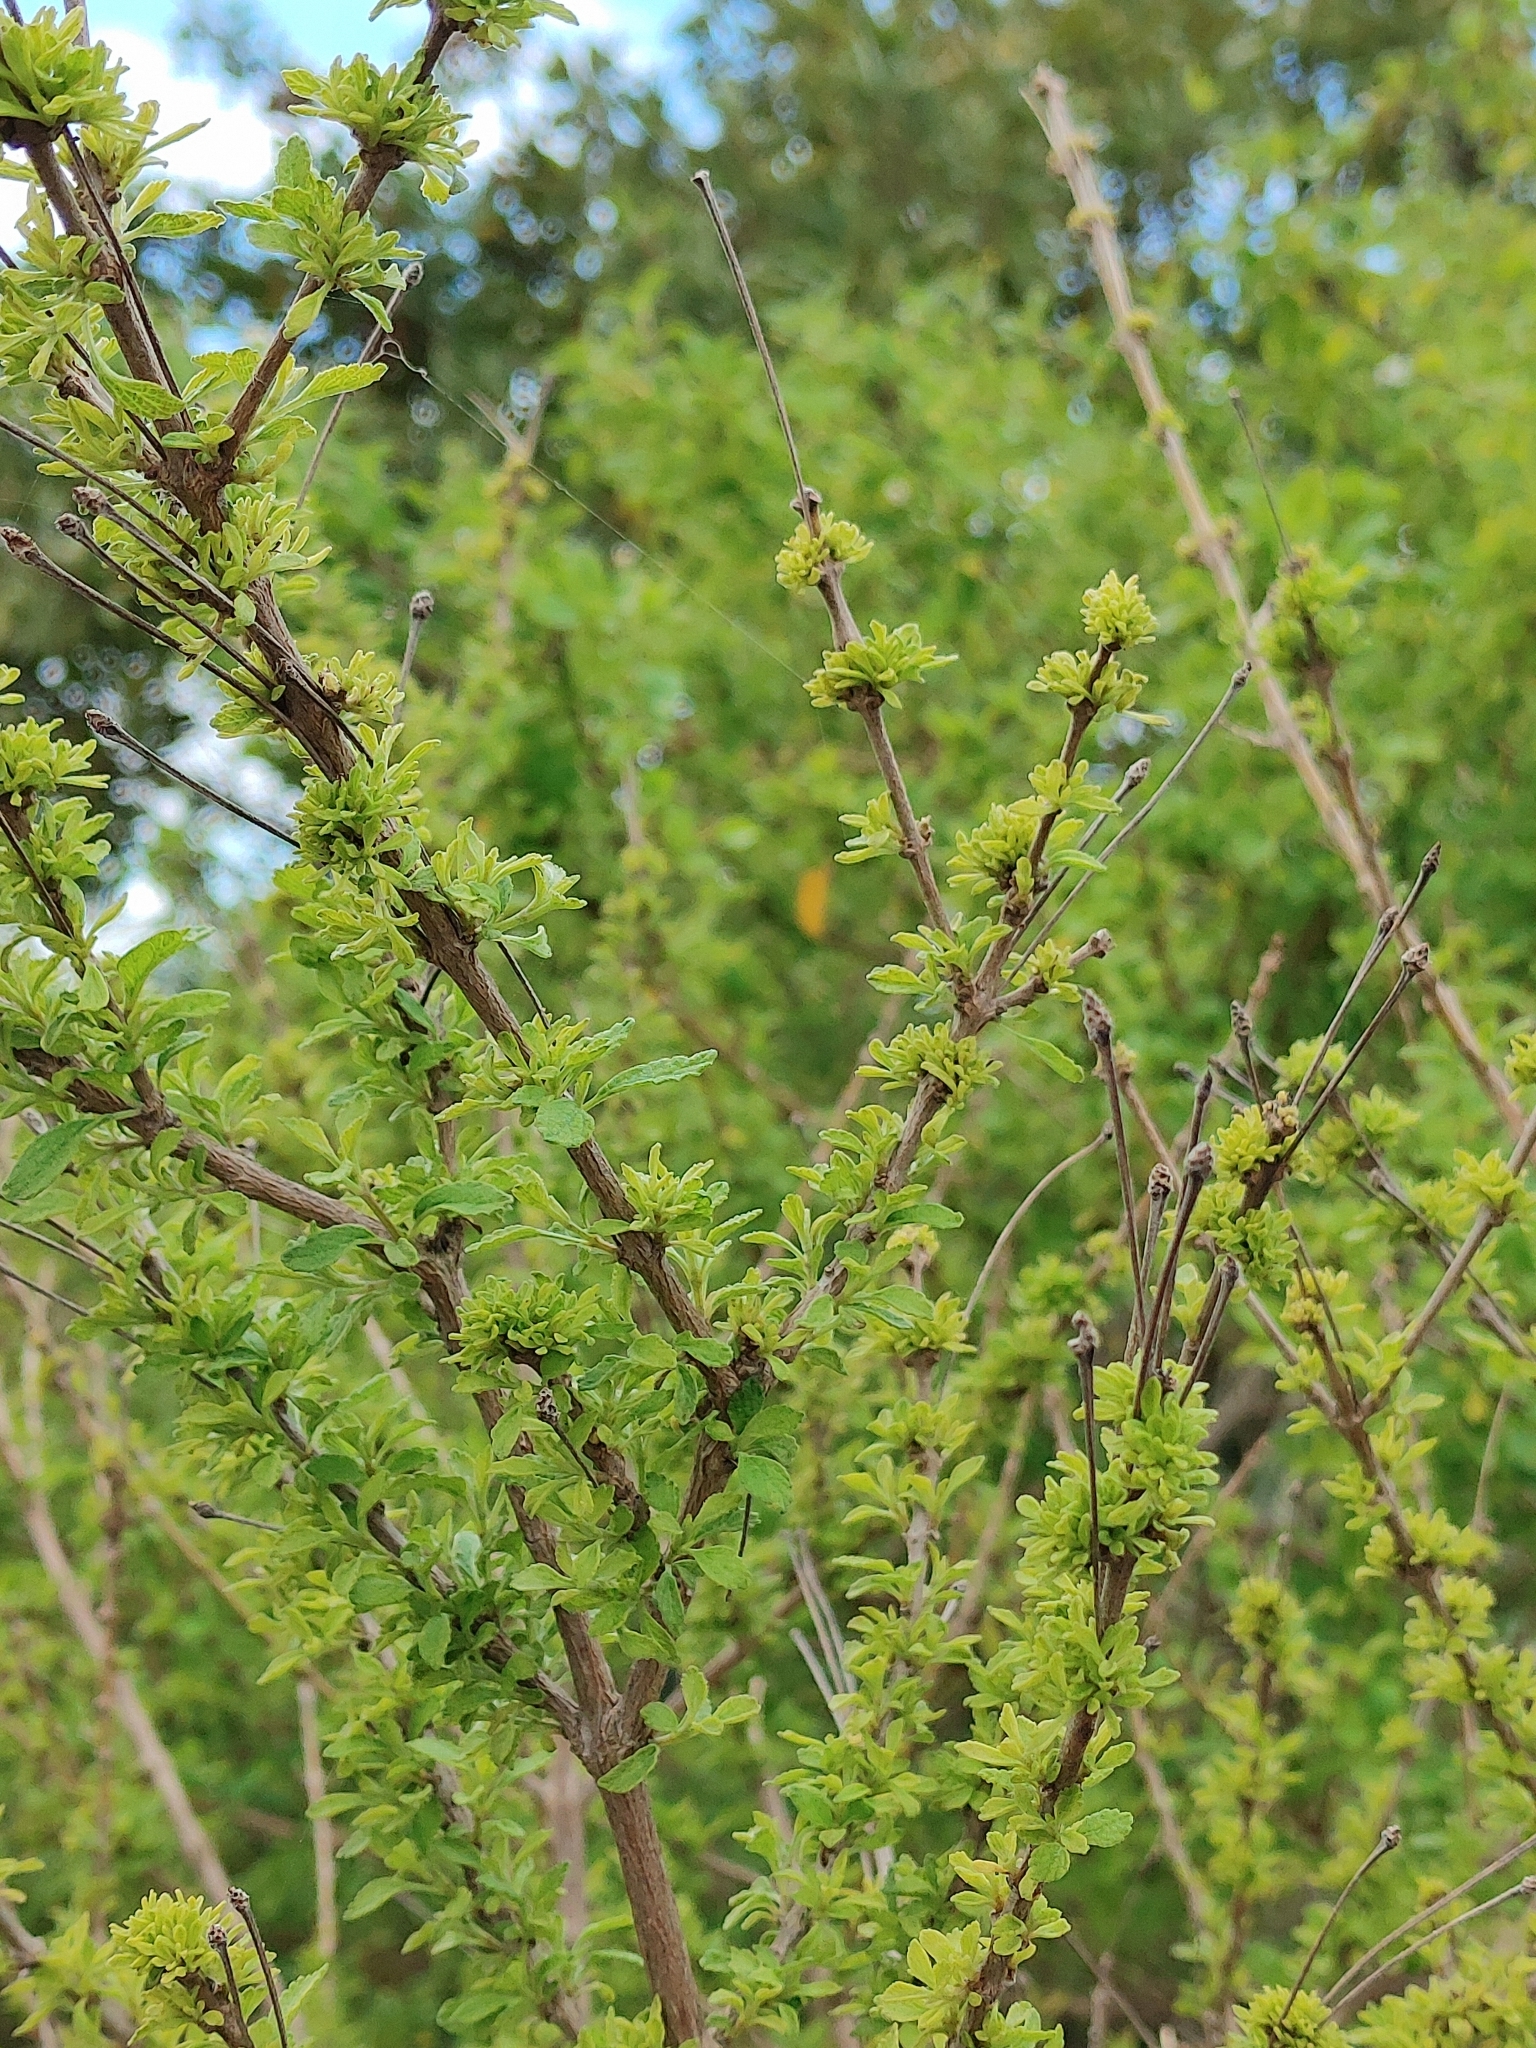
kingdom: Plantae
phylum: Tracheophyta
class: Magnoliopsida
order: Lamiales
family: Verbenaceae
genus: Lantana
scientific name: Lantana involucrata
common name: Black sage
